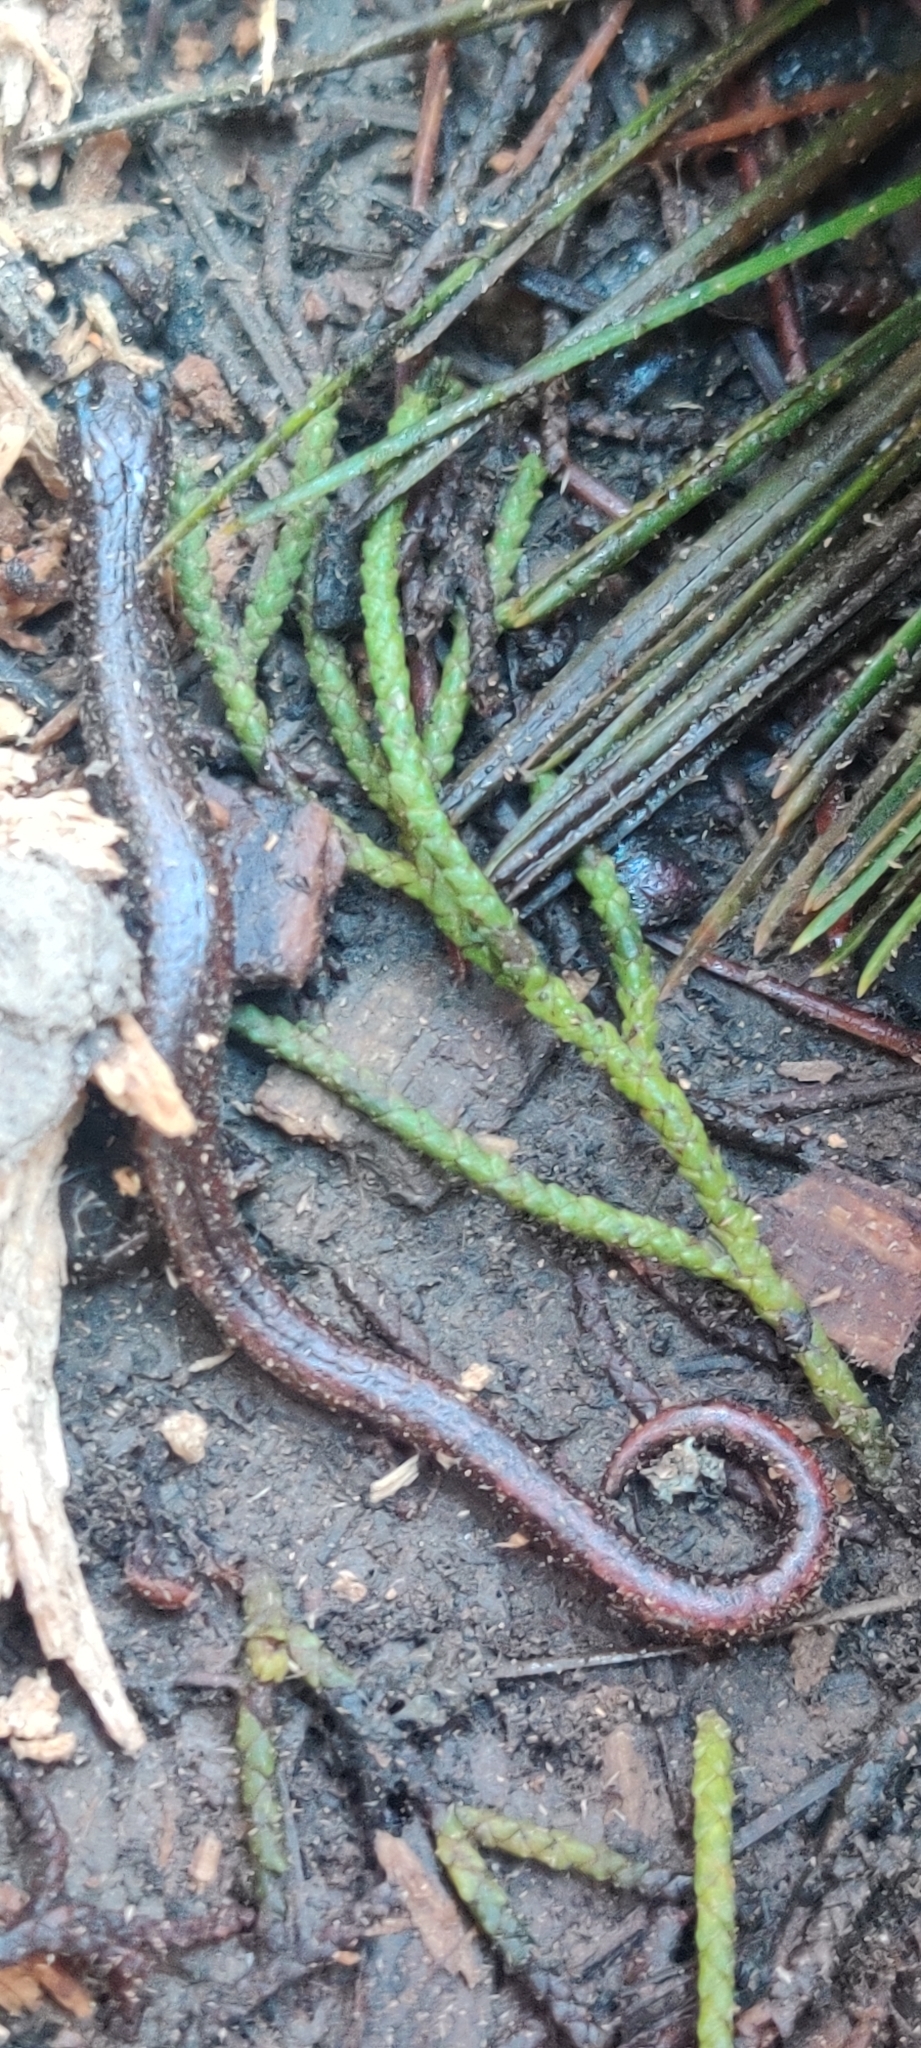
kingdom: Animalia
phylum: Chordata
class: Amphibia
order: Caudata
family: Plethodontidae
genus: Batrachoseps
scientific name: Batrachoseps attenuatus
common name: California slender salamander
